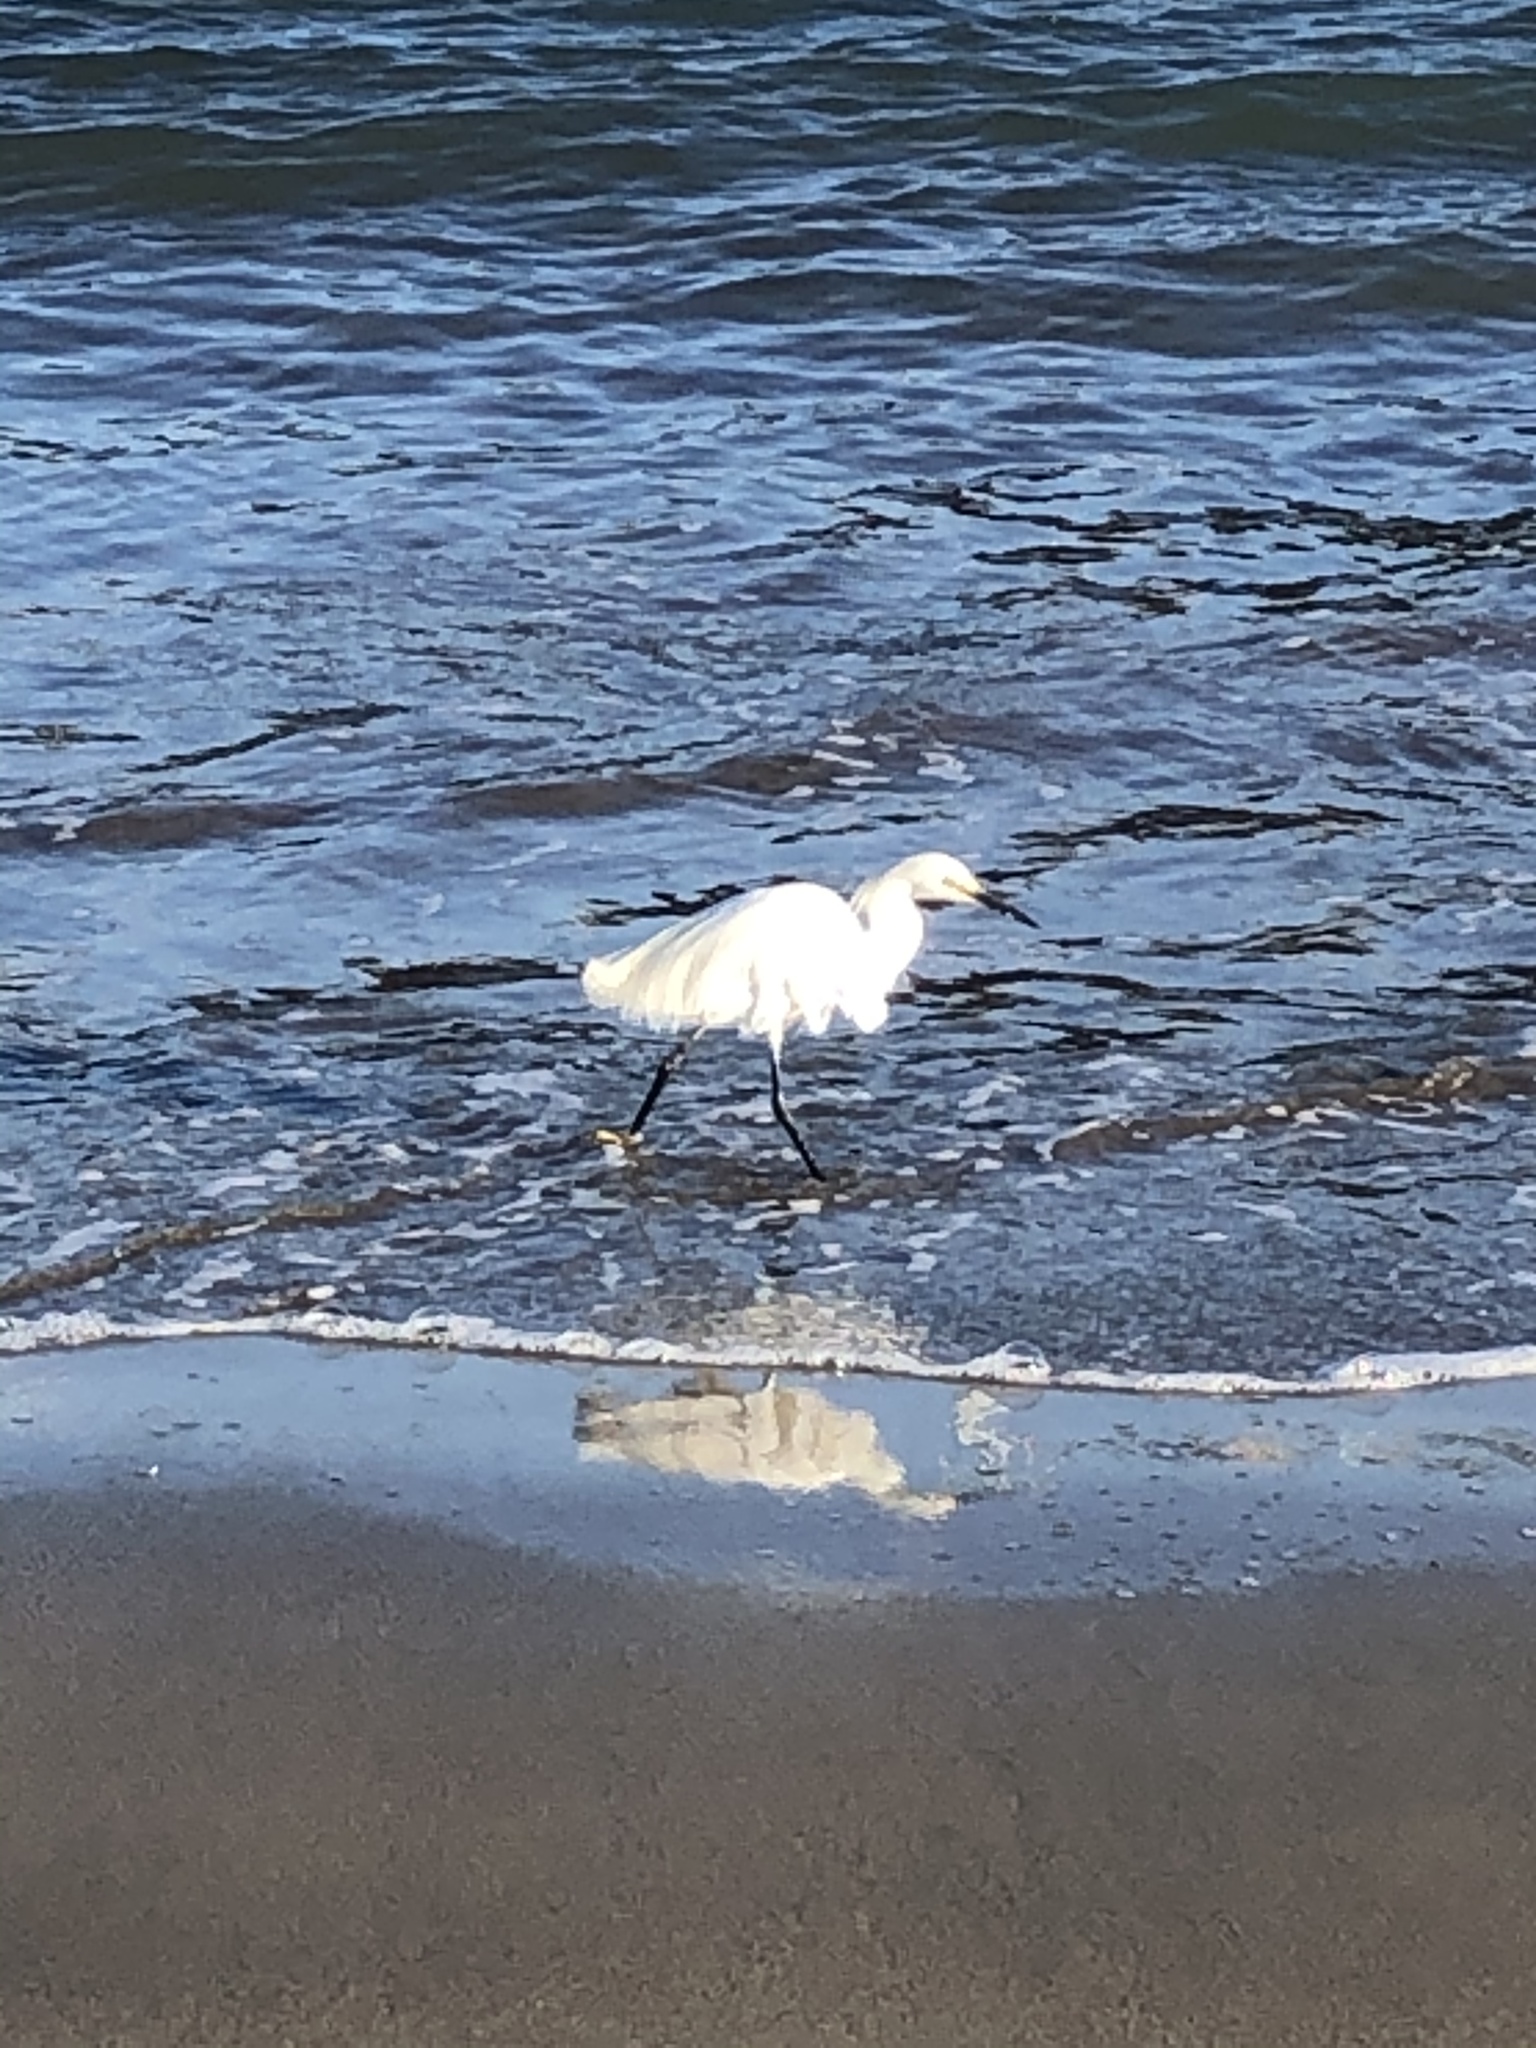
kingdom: Animalia
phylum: Chordata
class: Aves
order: Pelecaniformes
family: Ardeidae
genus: Egretta
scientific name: Egretta thula
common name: Snowy egret
